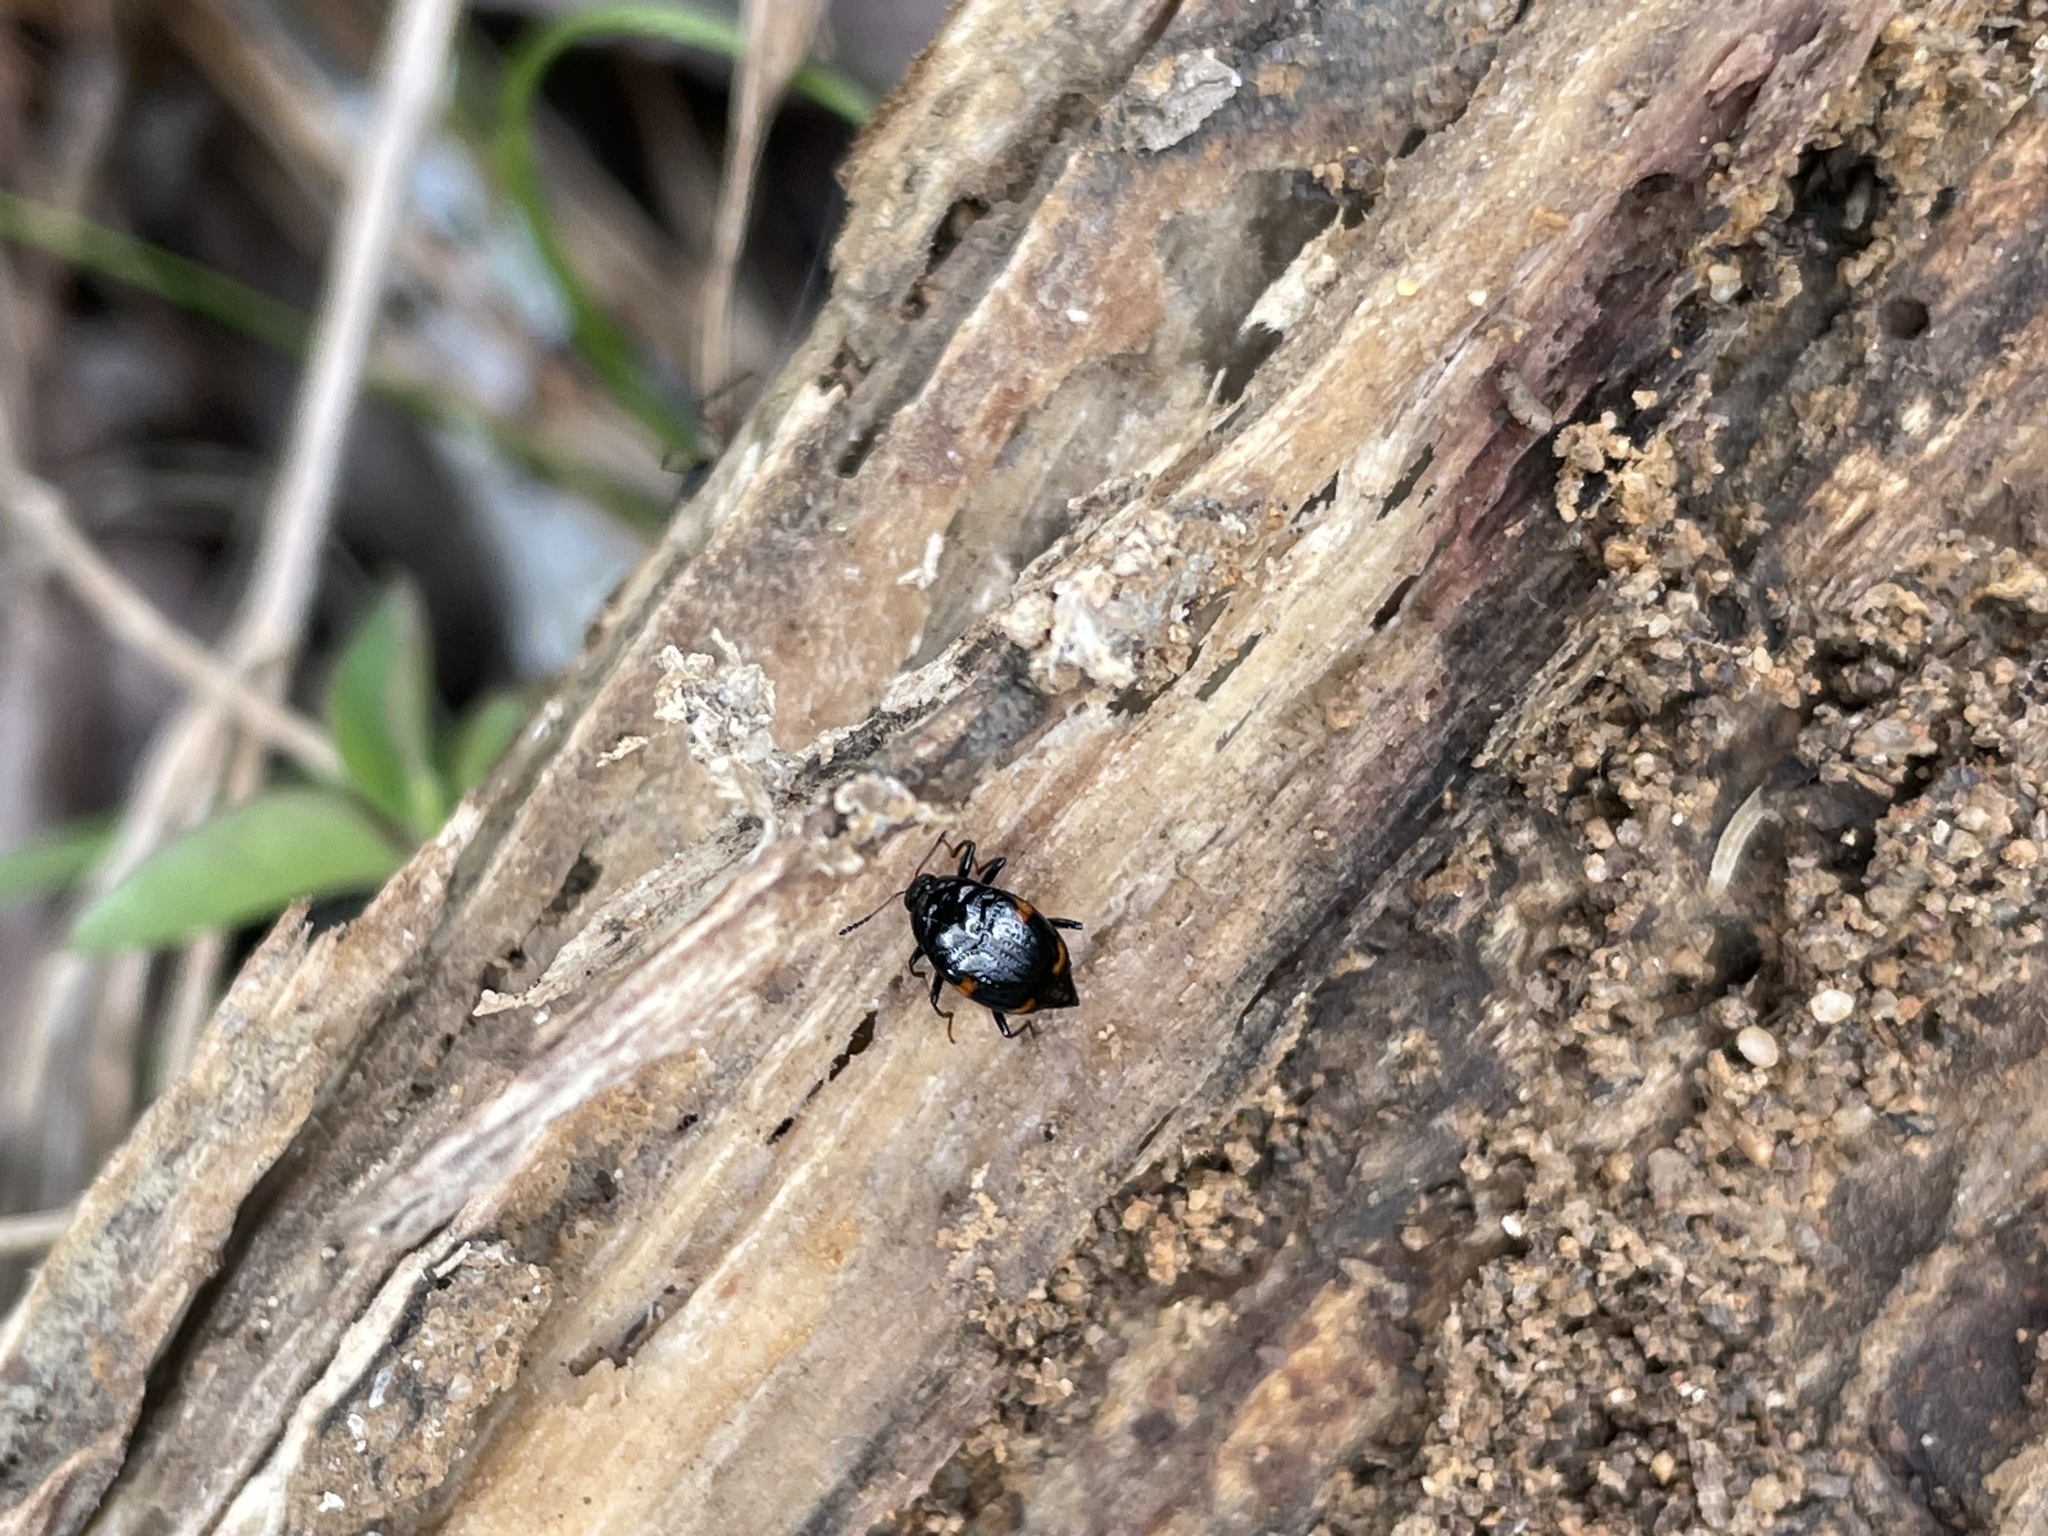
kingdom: Animalia
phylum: Arthropoda
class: Insecta
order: Coleoptera
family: Staphylinidae
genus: Scaphidium
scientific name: Scaphidium quadriguttatum
